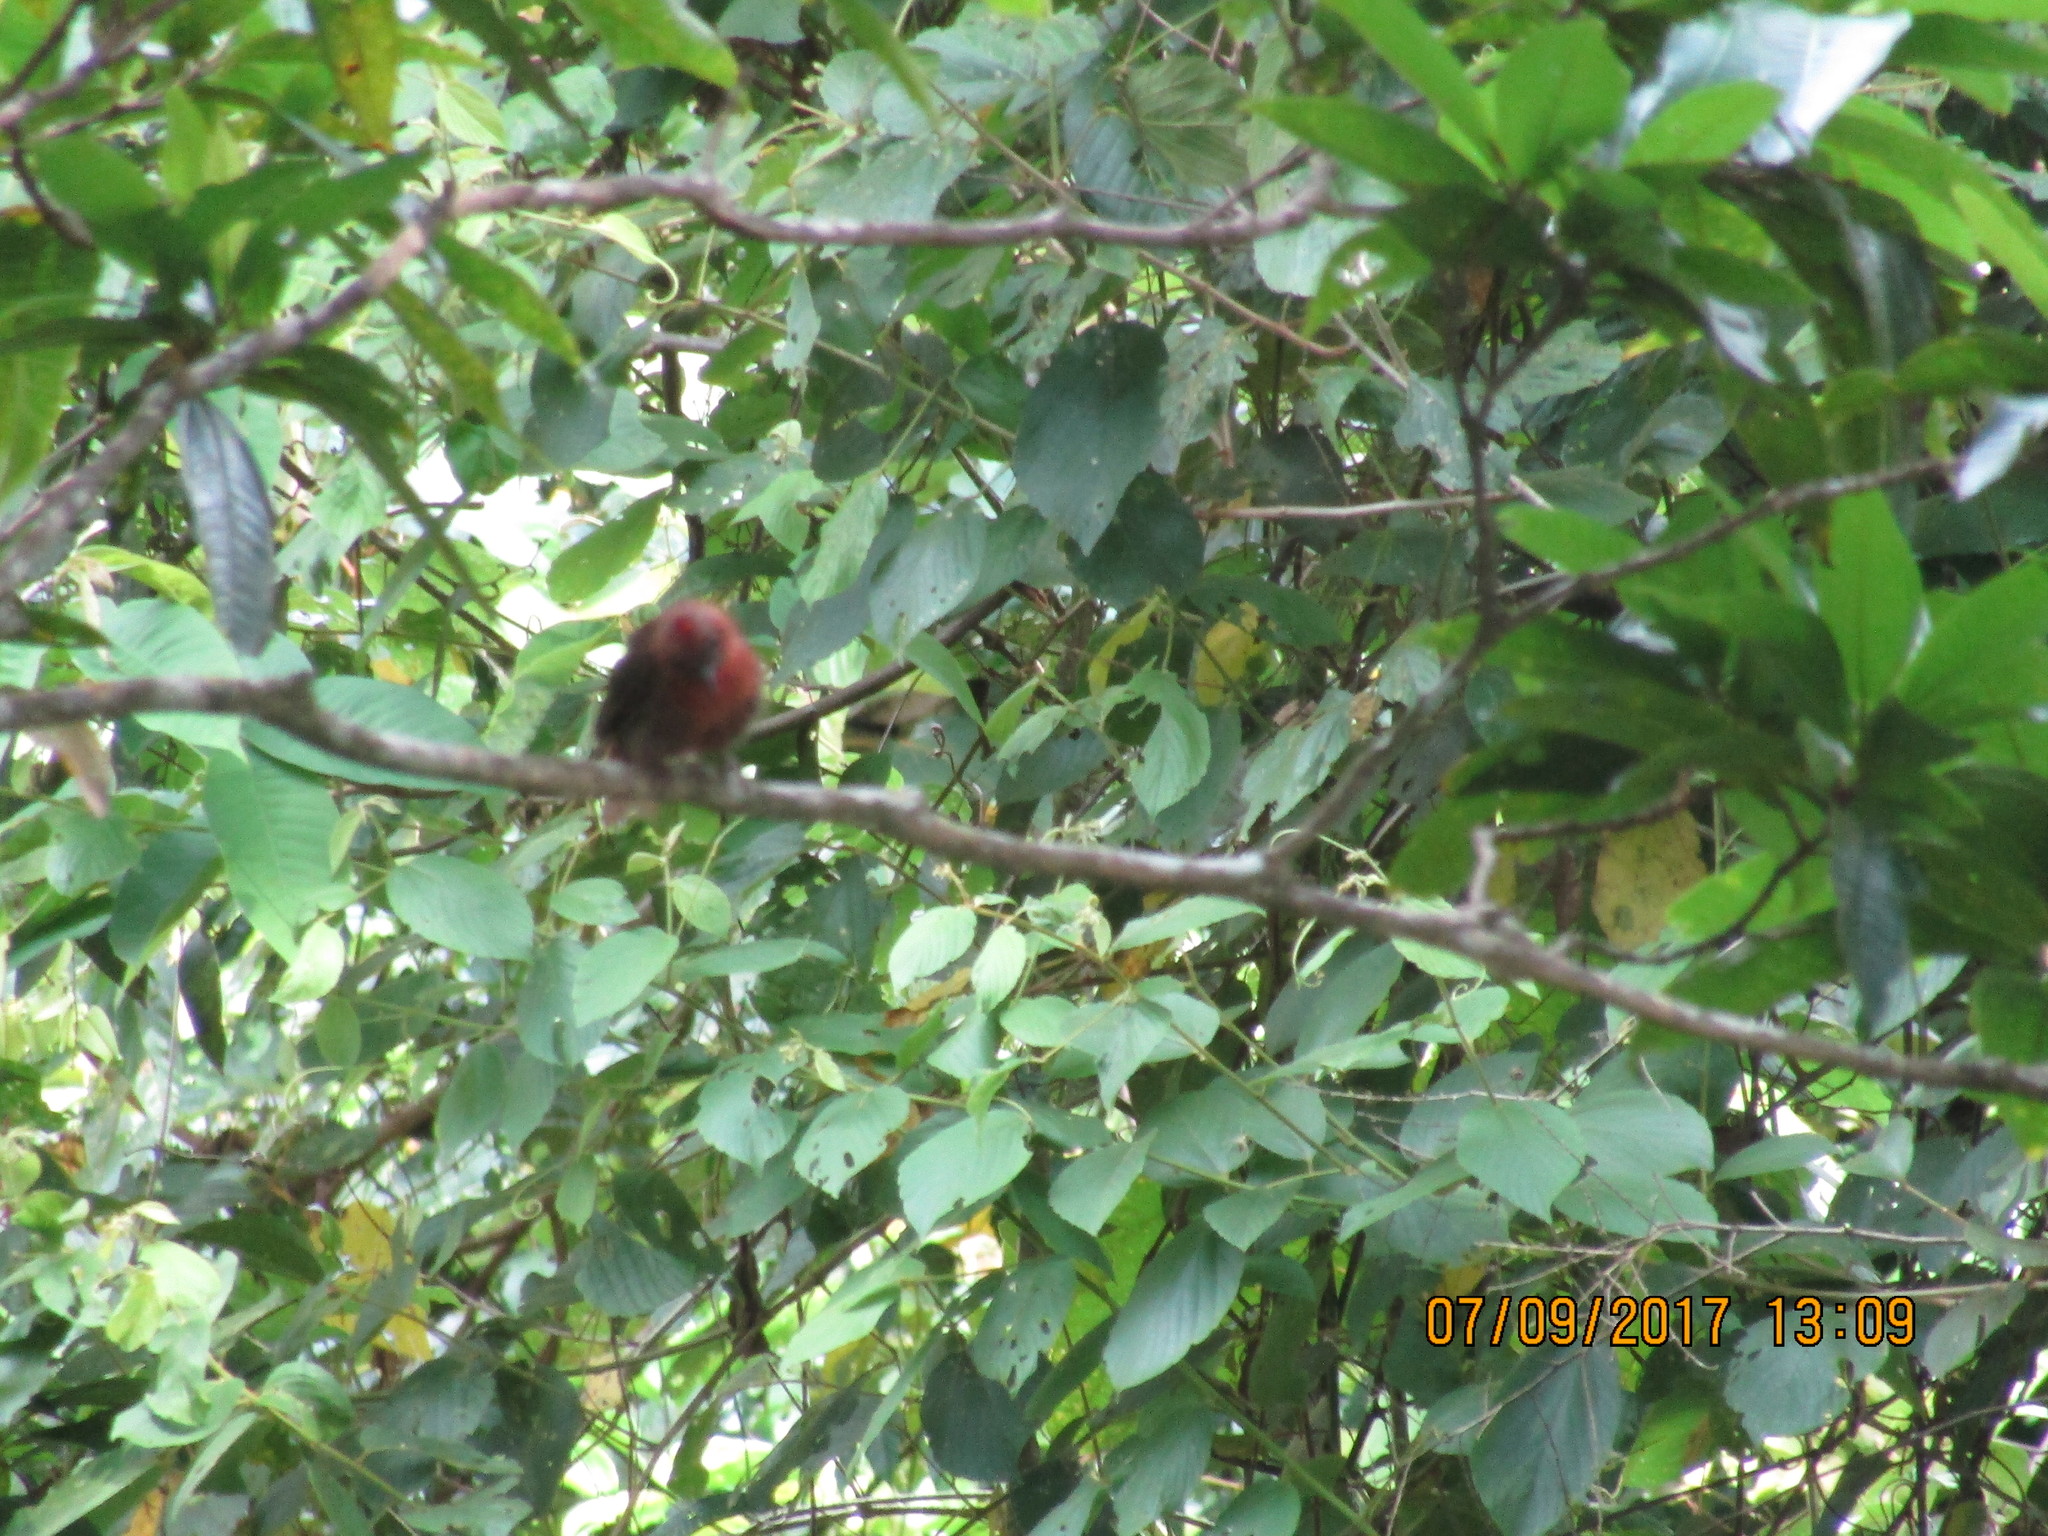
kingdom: Animalia
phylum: Chordata
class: Aves
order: Passeriformes
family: Cardinalidae
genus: Habia
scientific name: Habia fuscicauda
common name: Red-throated ant-tanager
